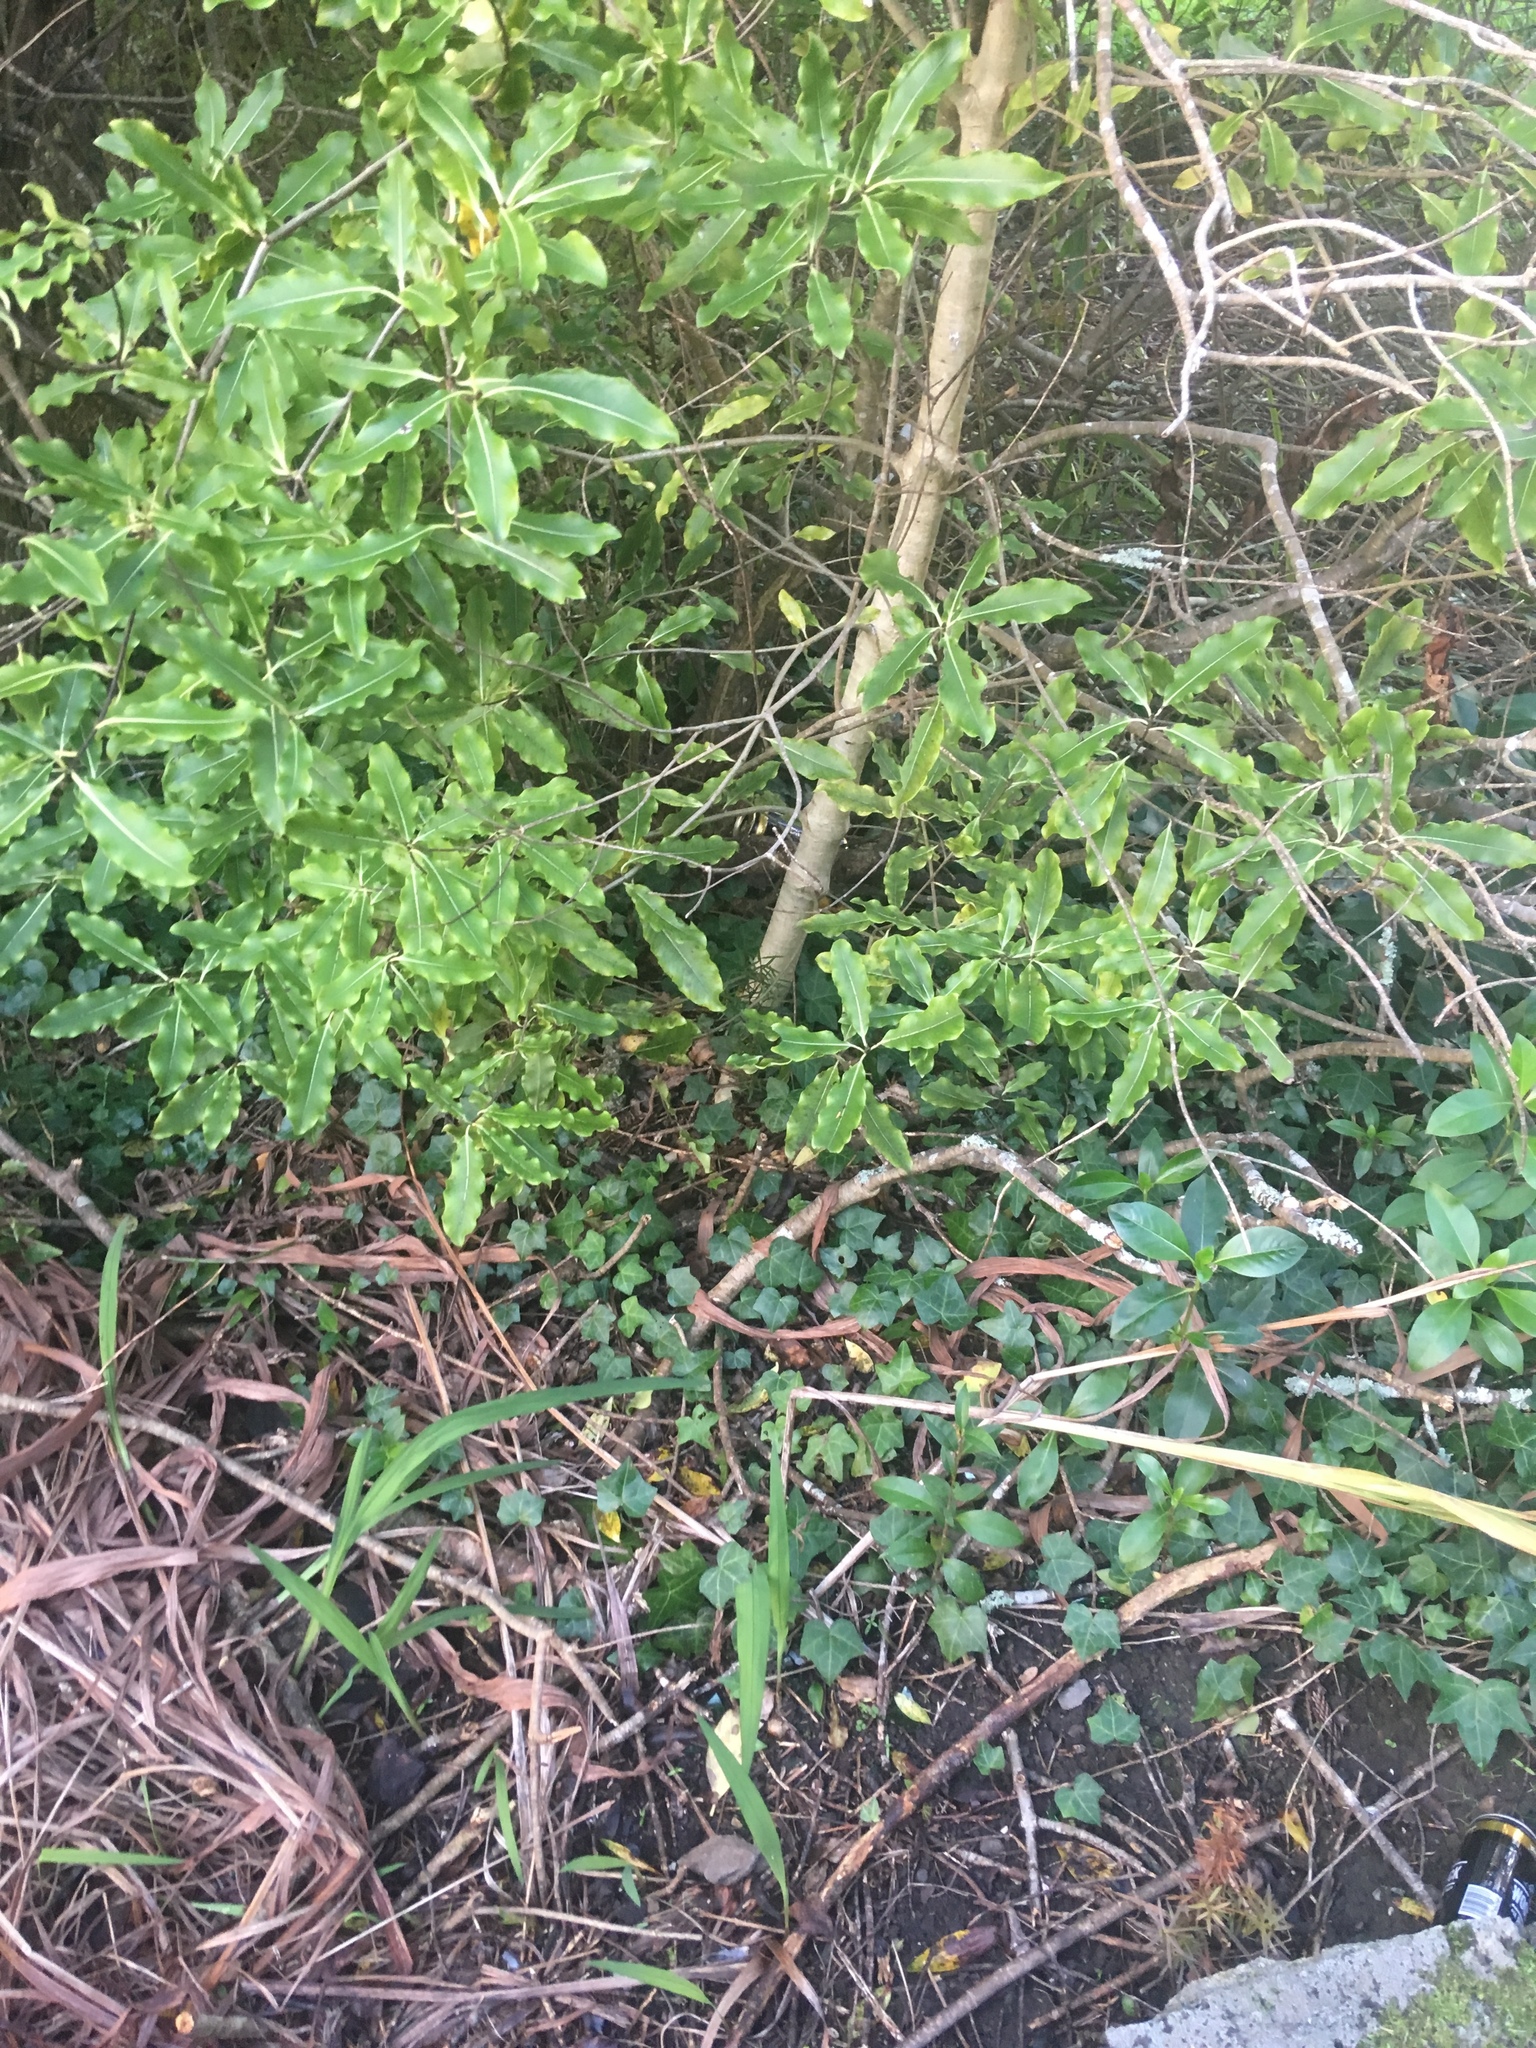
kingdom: Plantae
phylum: Tracheophyta
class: Magnoliopsida
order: Apiales
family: Araliaceae
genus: Hedera
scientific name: Hedera helix
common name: Ivy
